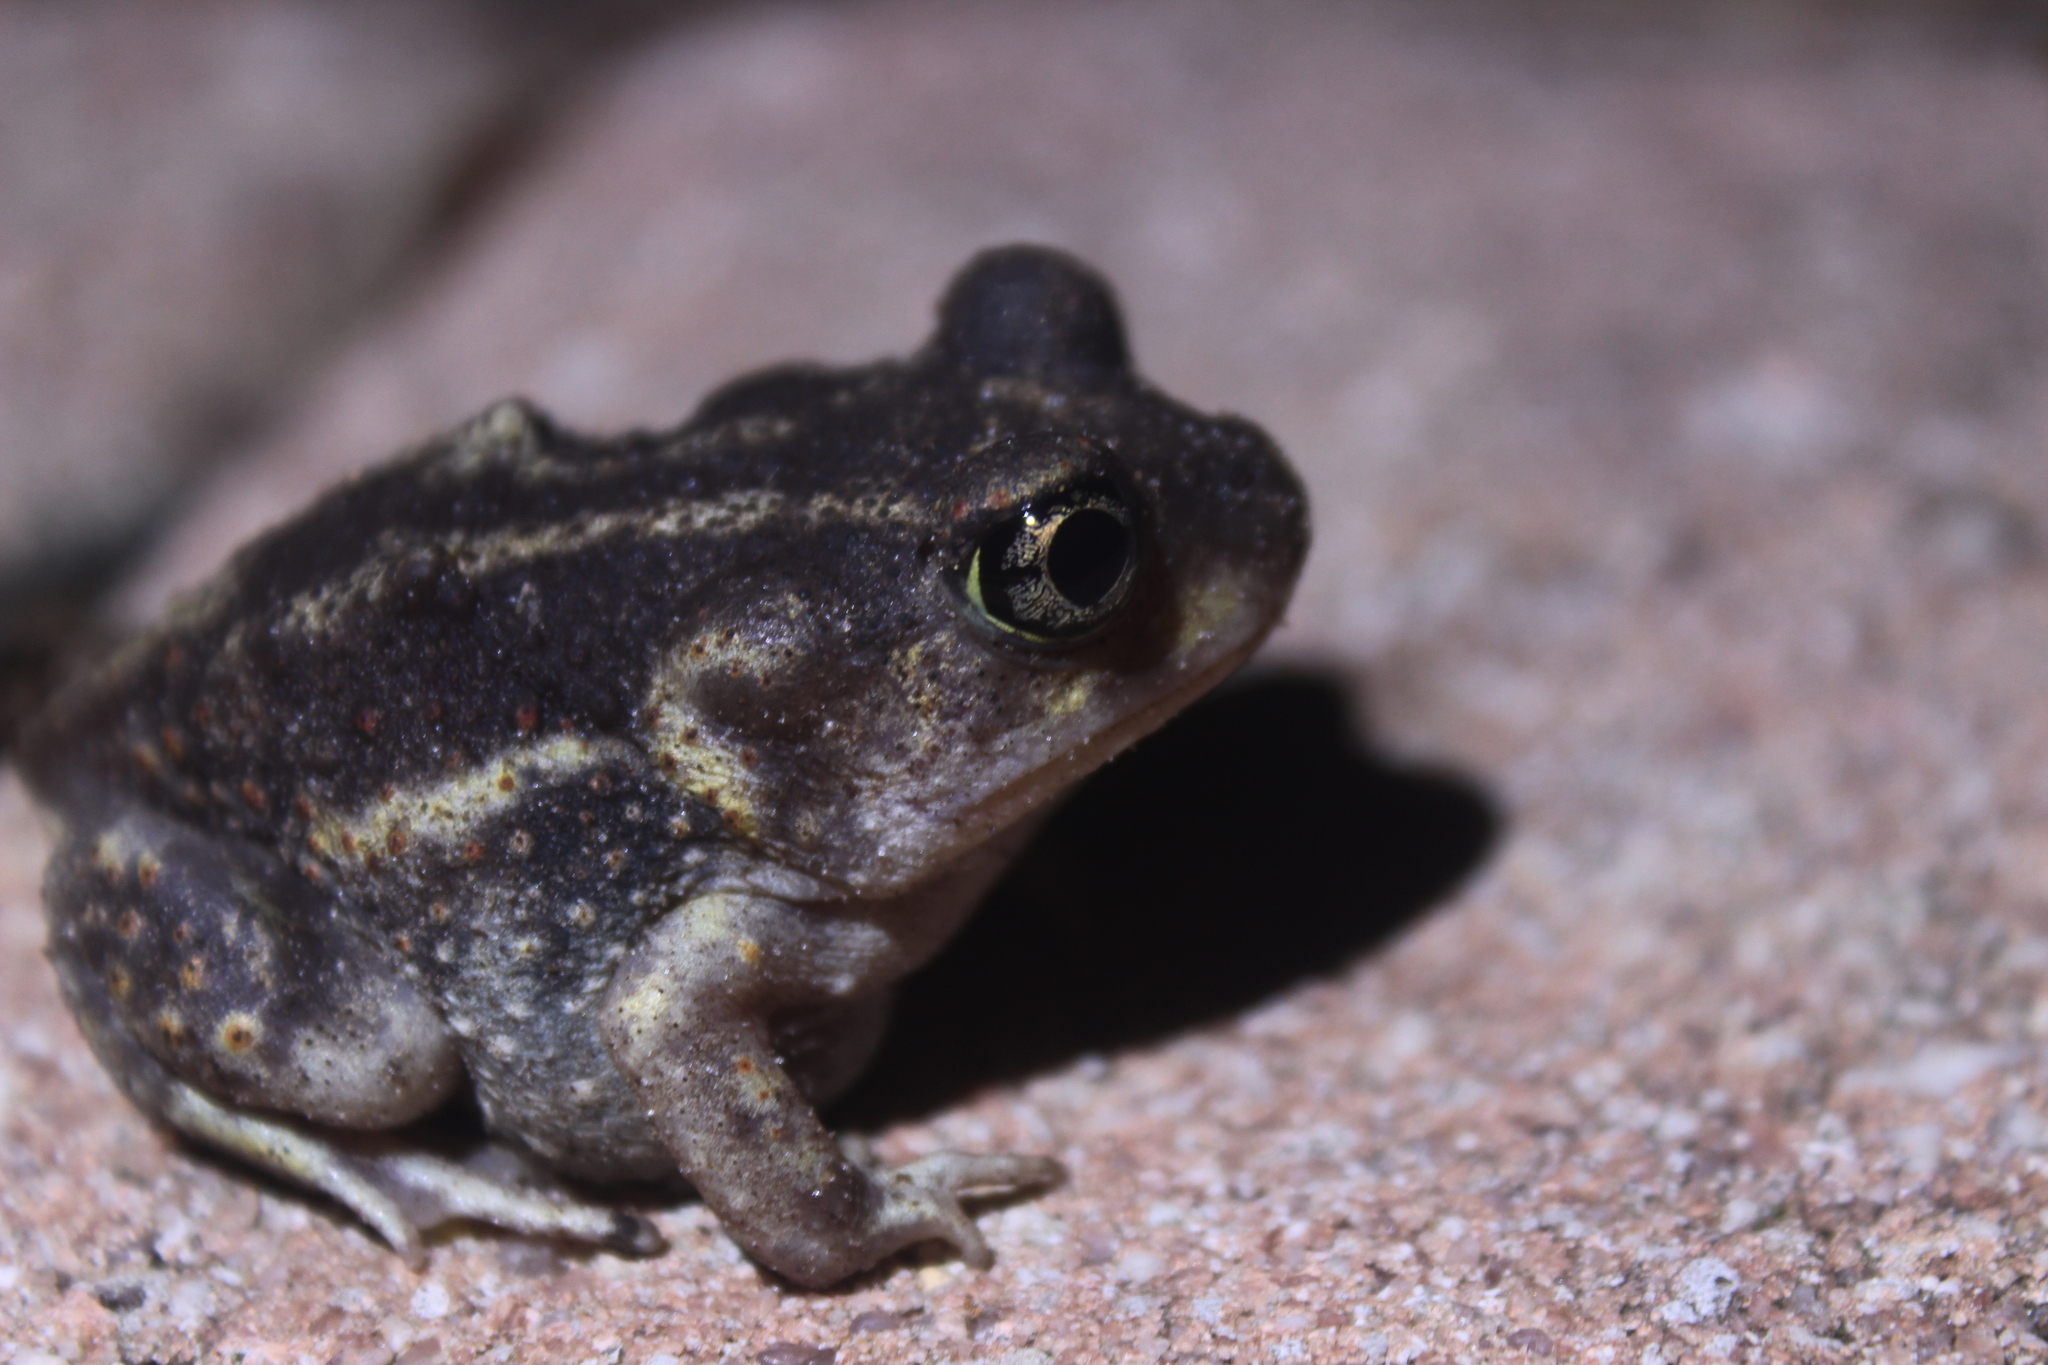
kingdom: Animalia
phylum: Chordata
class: Amphibia
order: Anura
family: Scaphiopodidae
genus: Scaphiopus
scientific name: Scaphiopus holbrookii
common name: Eastern spadefoot toad
